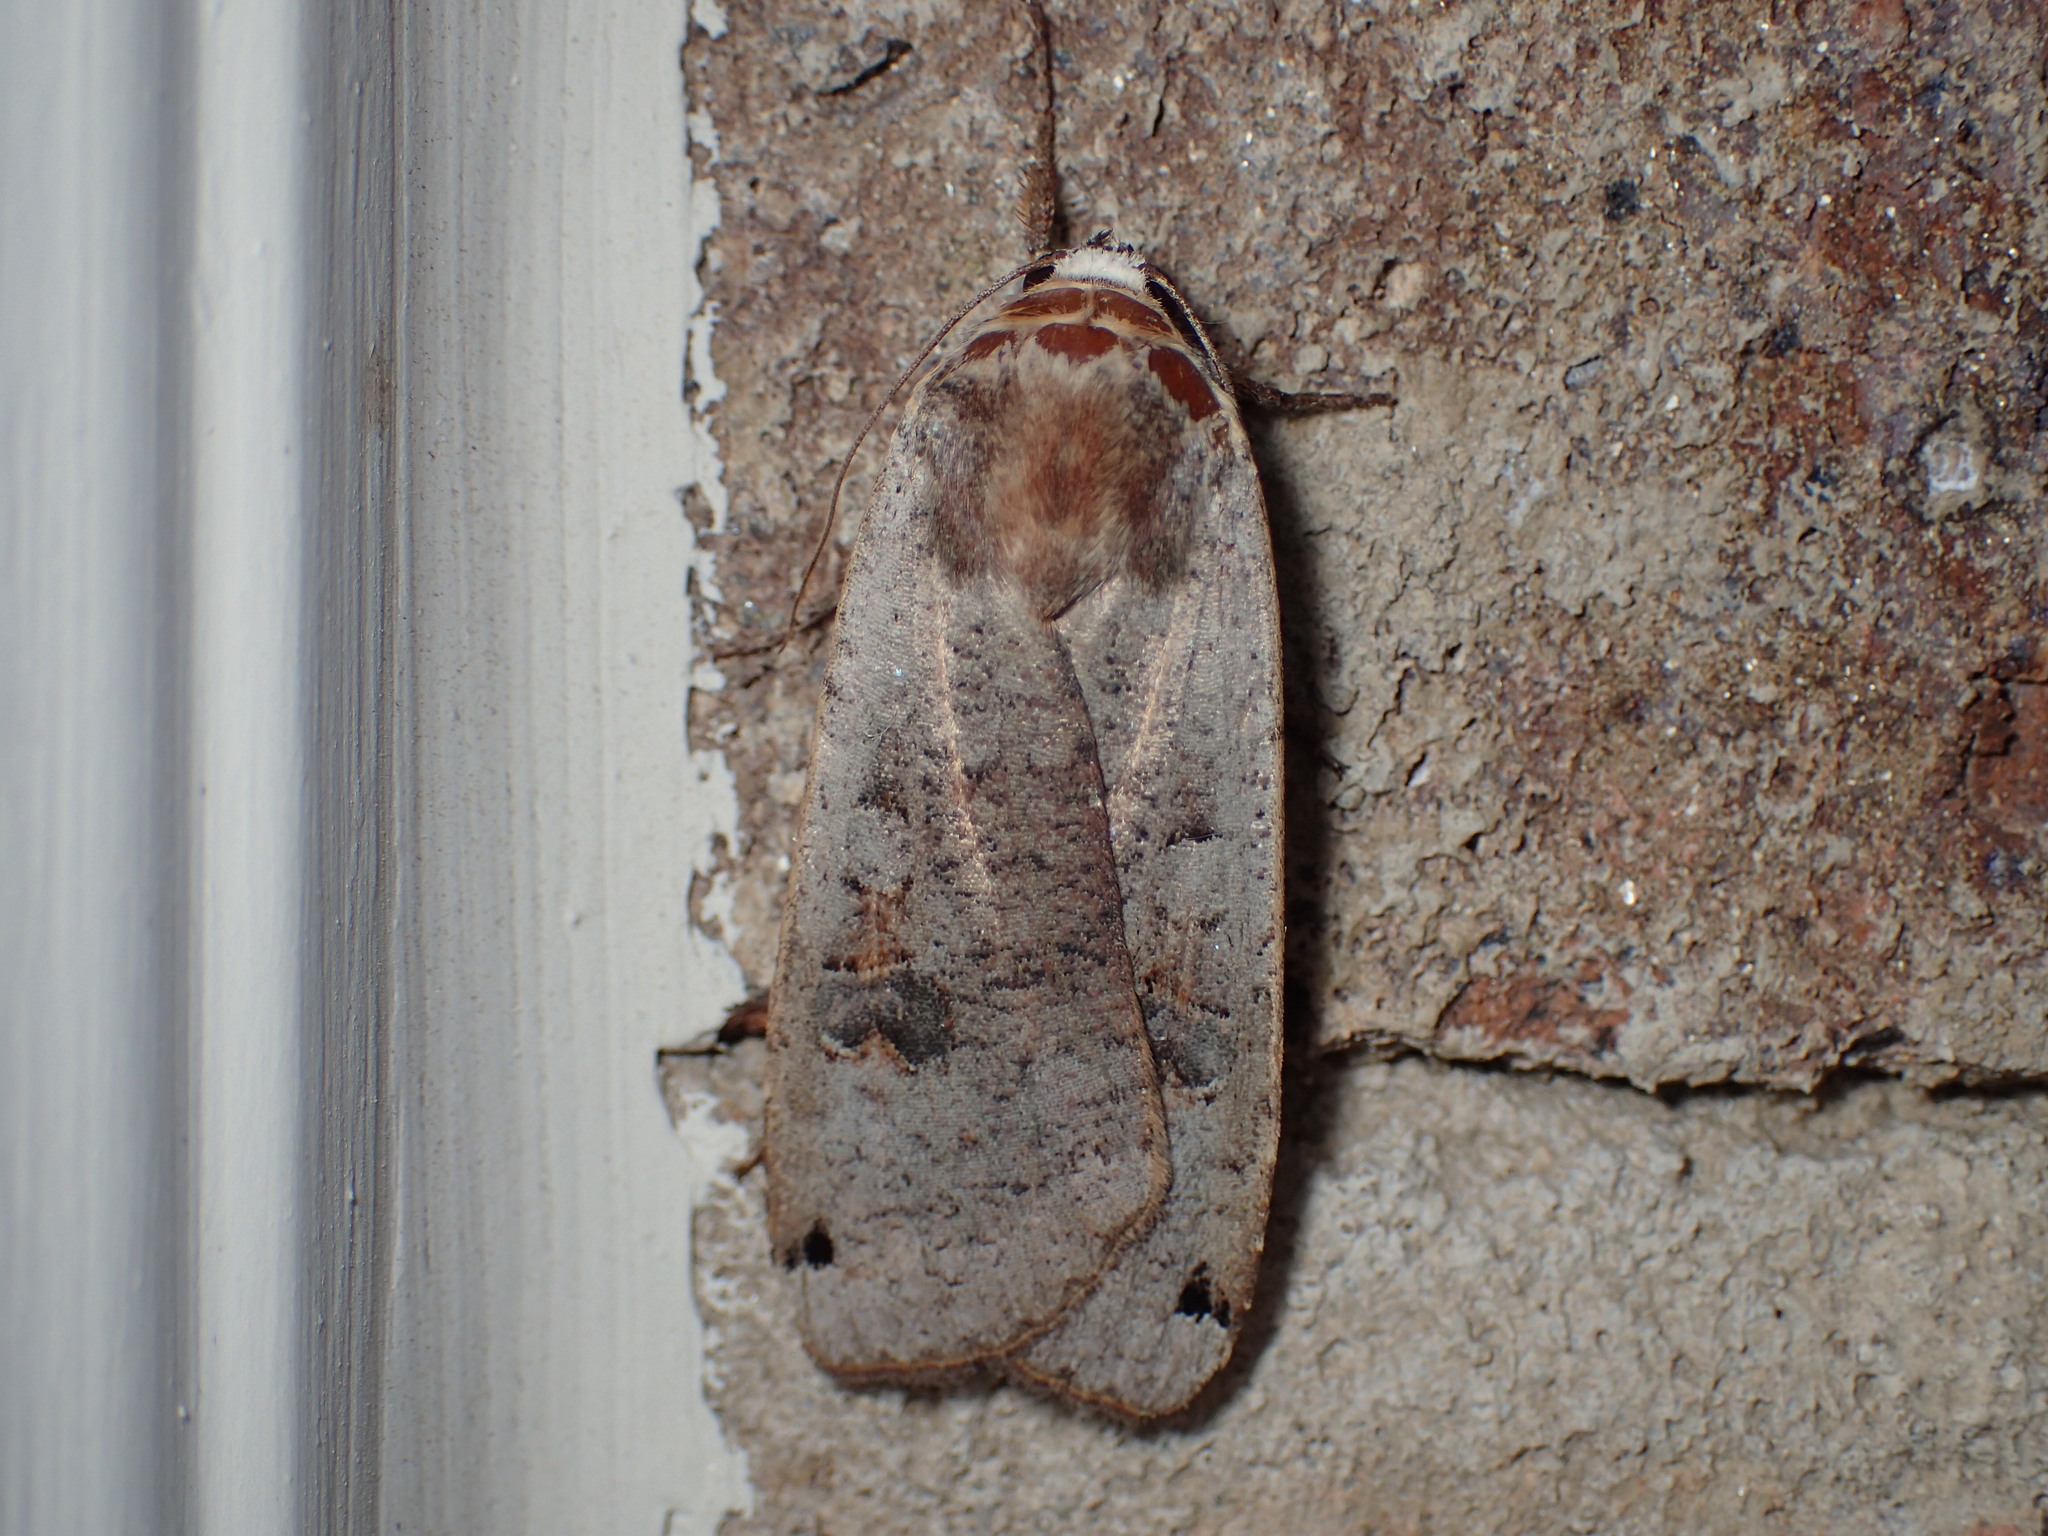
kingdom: Animalia
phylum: Arthropoda
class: Insecta
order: Lepidoptera
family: Noctuidae
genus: Noctua
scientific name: Noctua pronuba
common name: Large yellow underwing
